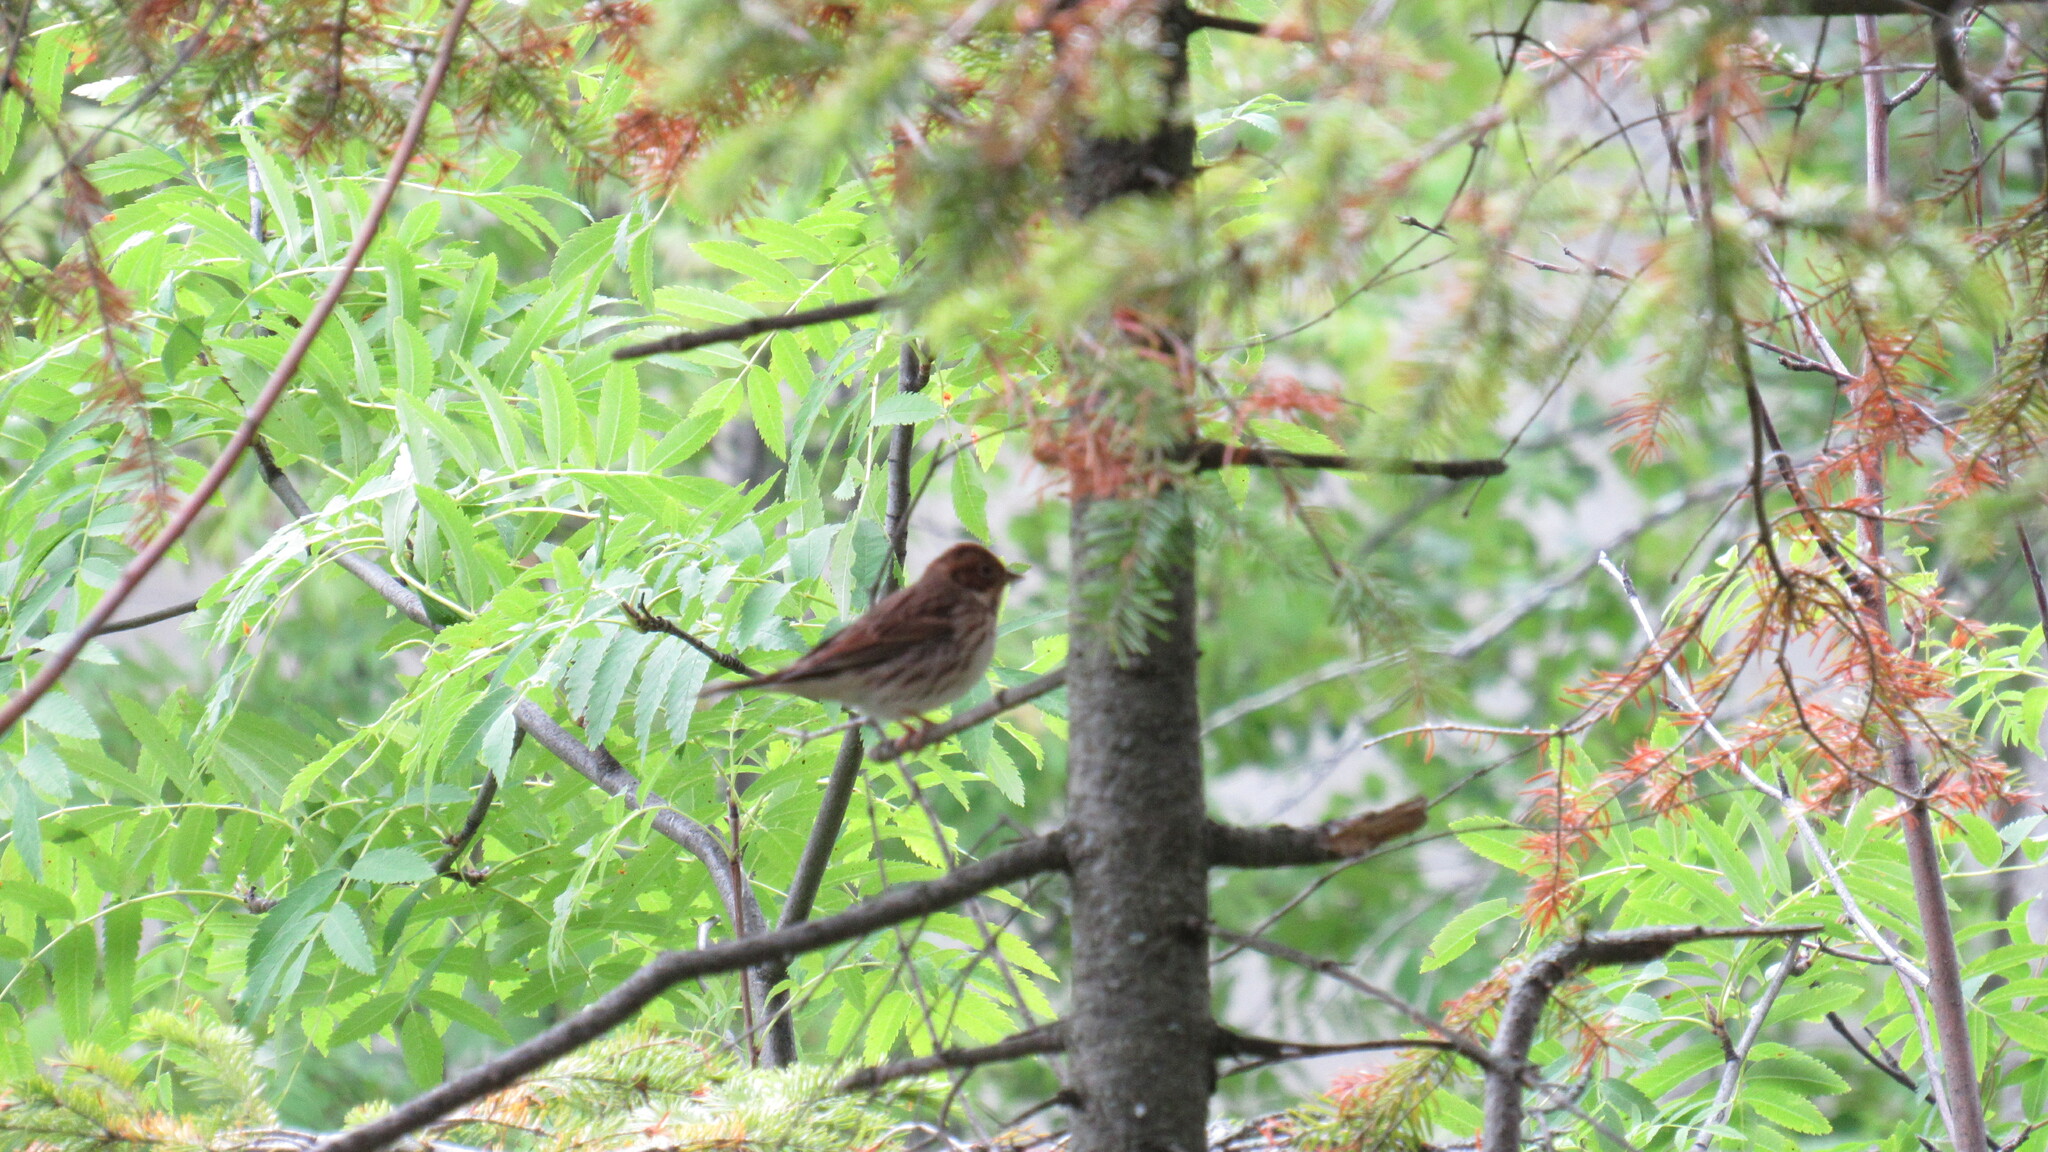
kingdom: Animalia
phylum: Chordata
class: Aves
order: Passeriformes
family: Emberizidae
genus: Emberiza
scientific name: Emberiza pusilla
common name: Little bunting
